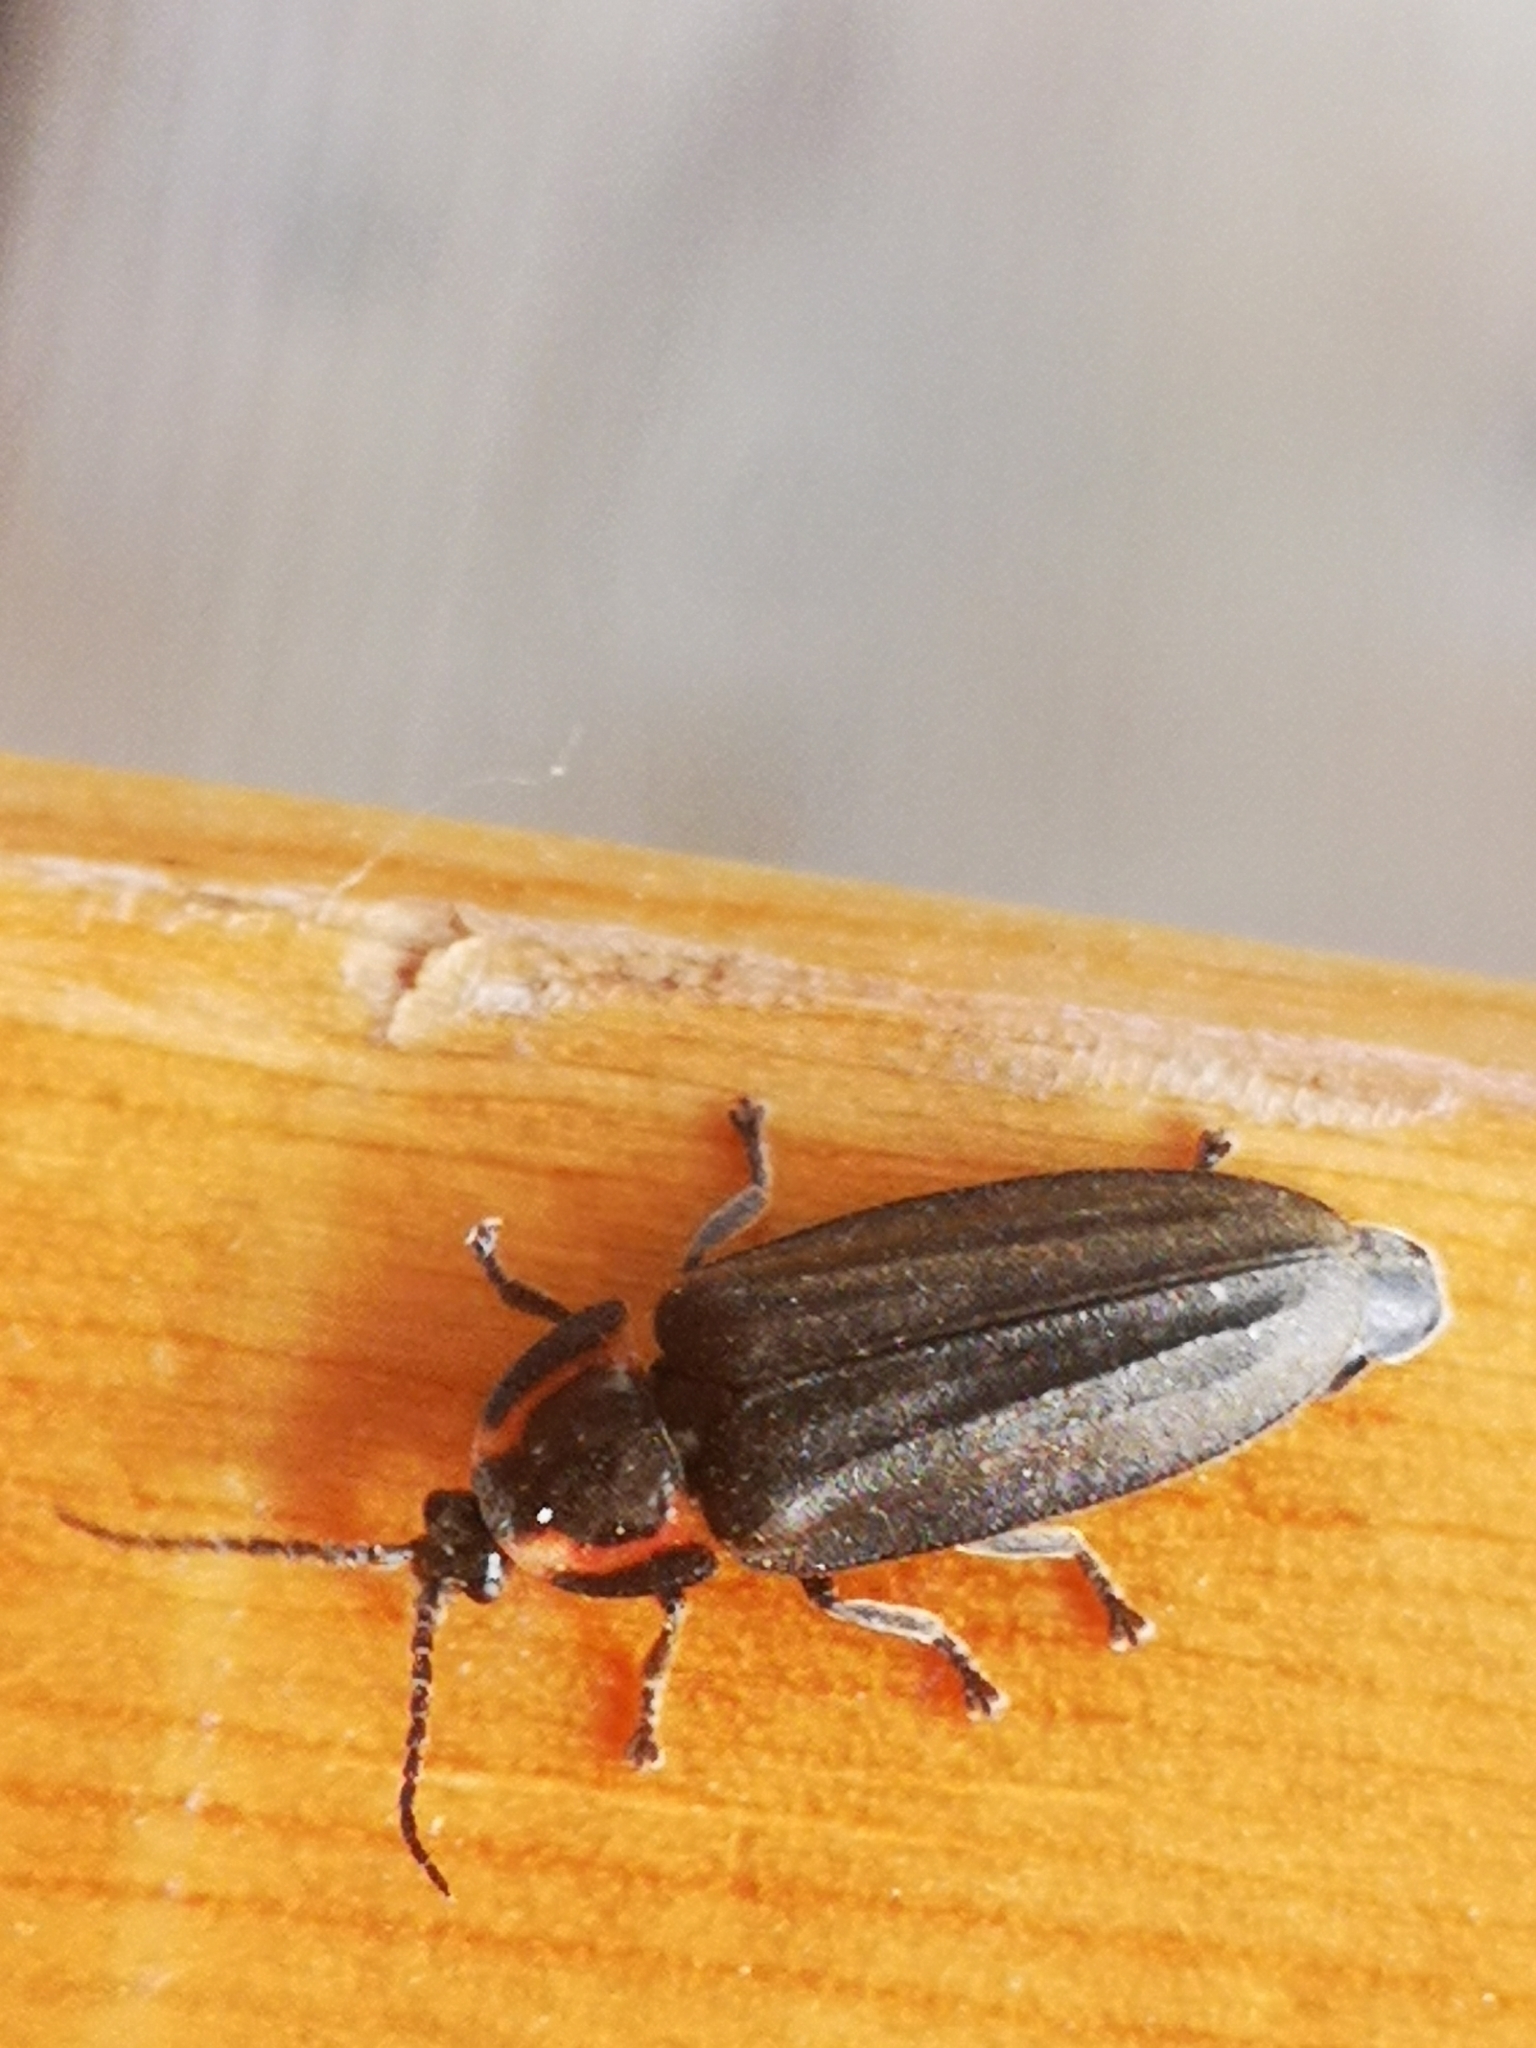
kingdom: Animalia
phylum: Arthropoda
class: Insecta
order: Coleoptera
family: Lampyridae
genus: Photinus
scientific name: Photinus corrusca
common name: Winter firefly
